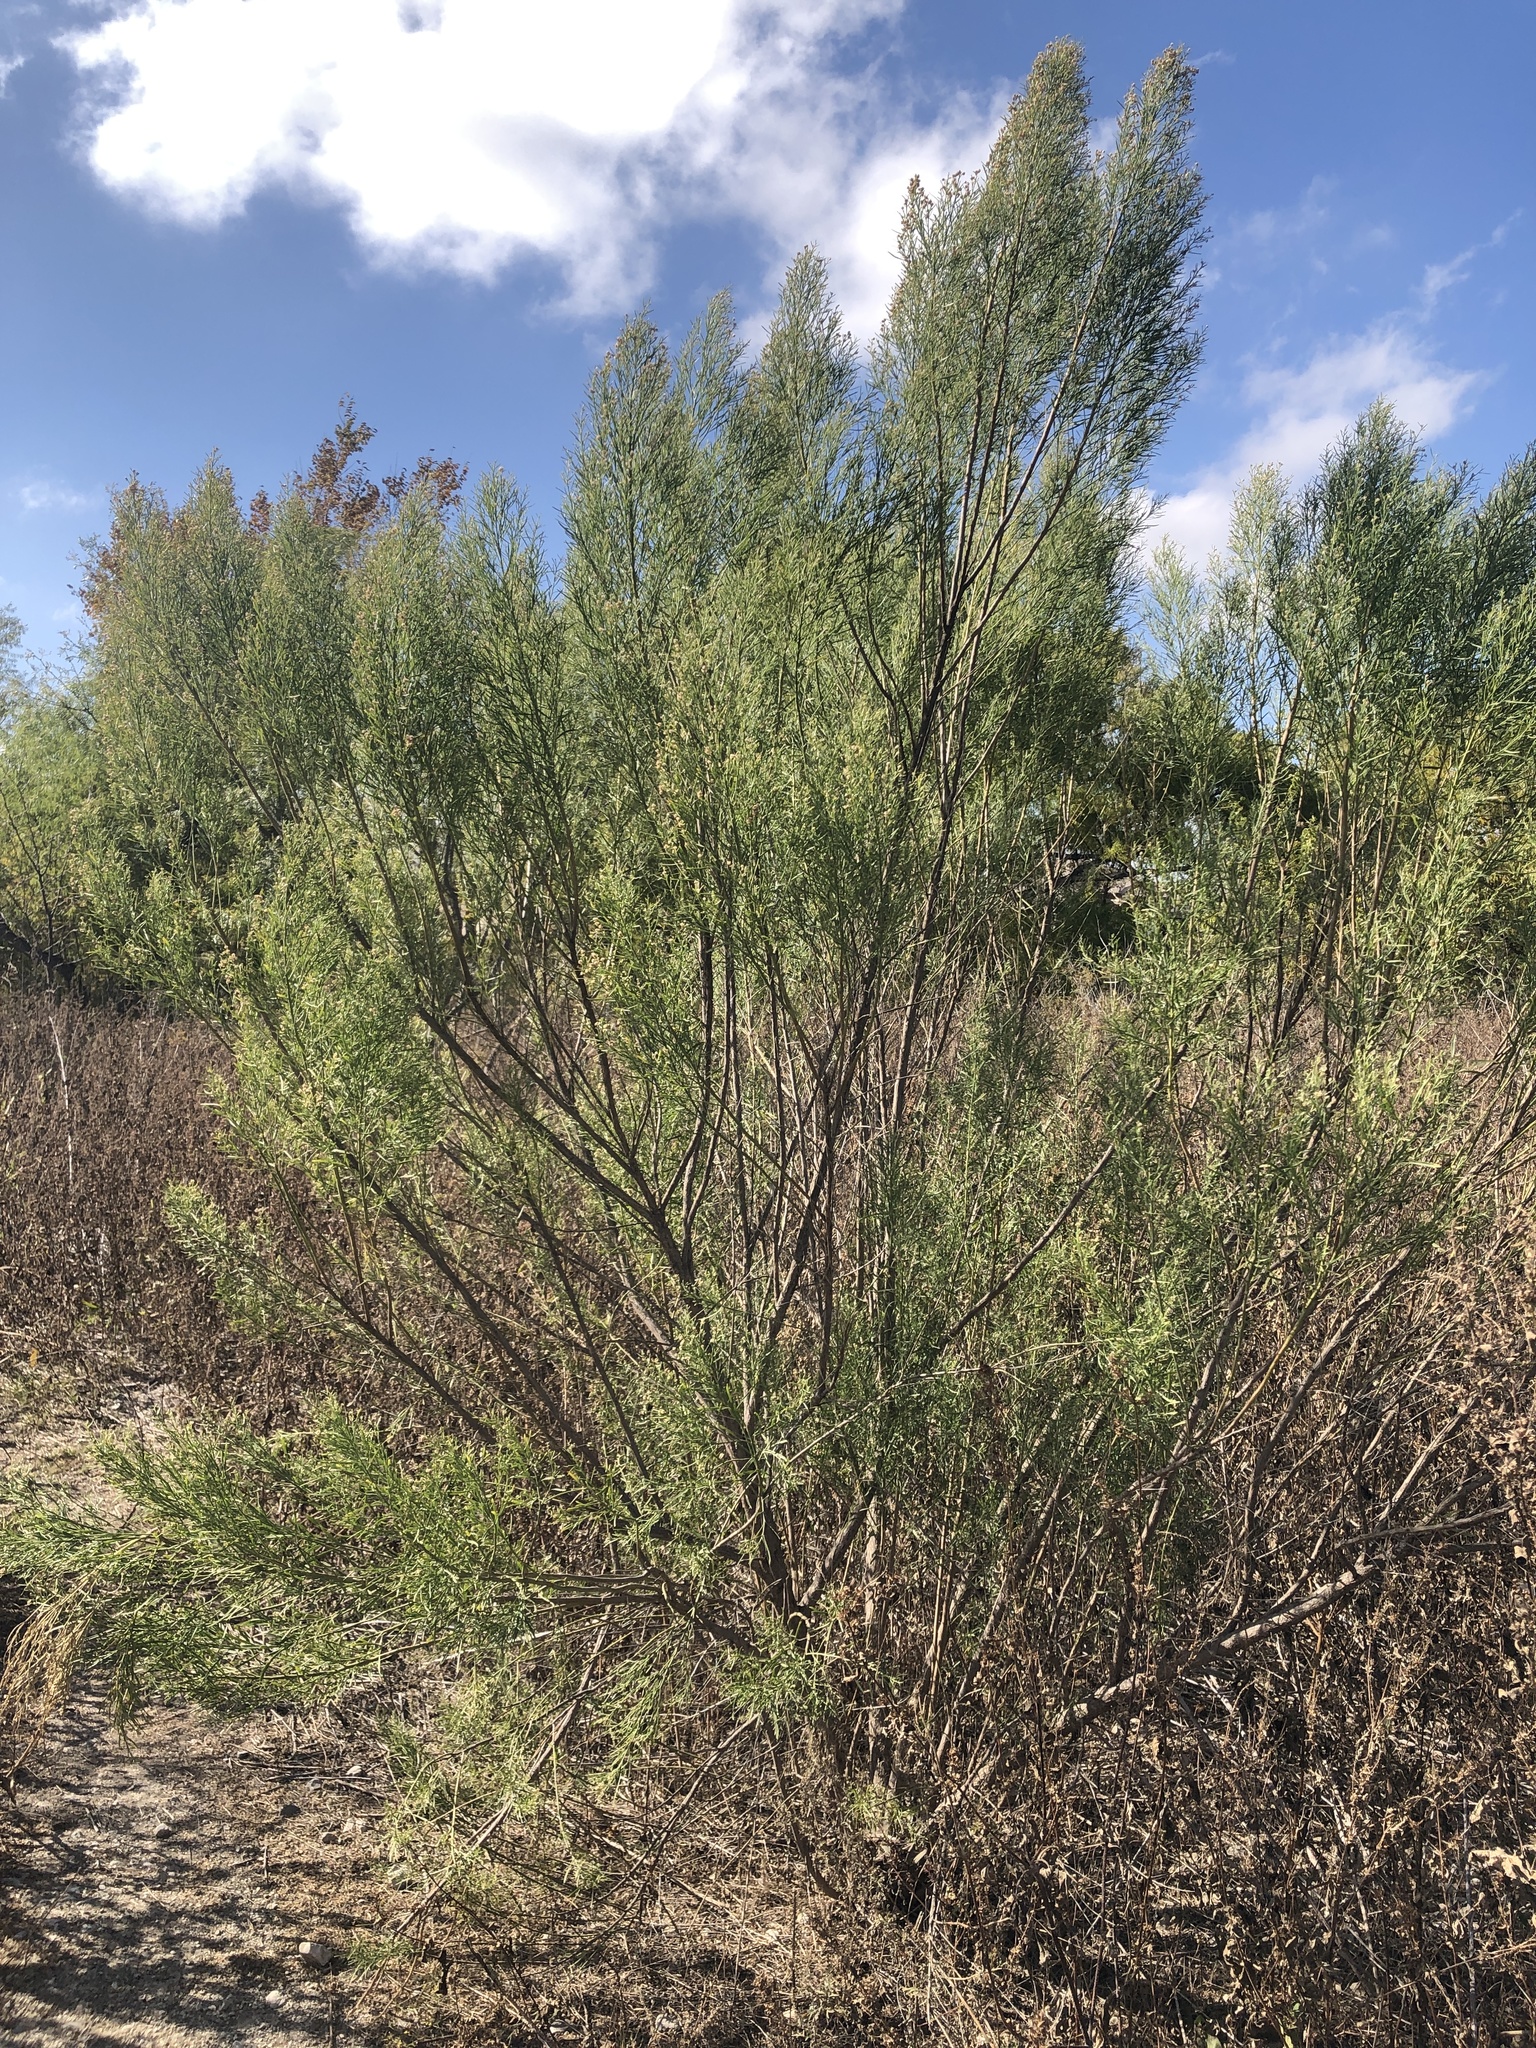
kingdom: Plantae
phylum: Tracheophyta
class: Magnoliopsida
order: Asterales
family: Asteraceae
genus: Baccharis
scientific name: Baccharis neglecta
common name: Roosevelt-weed
